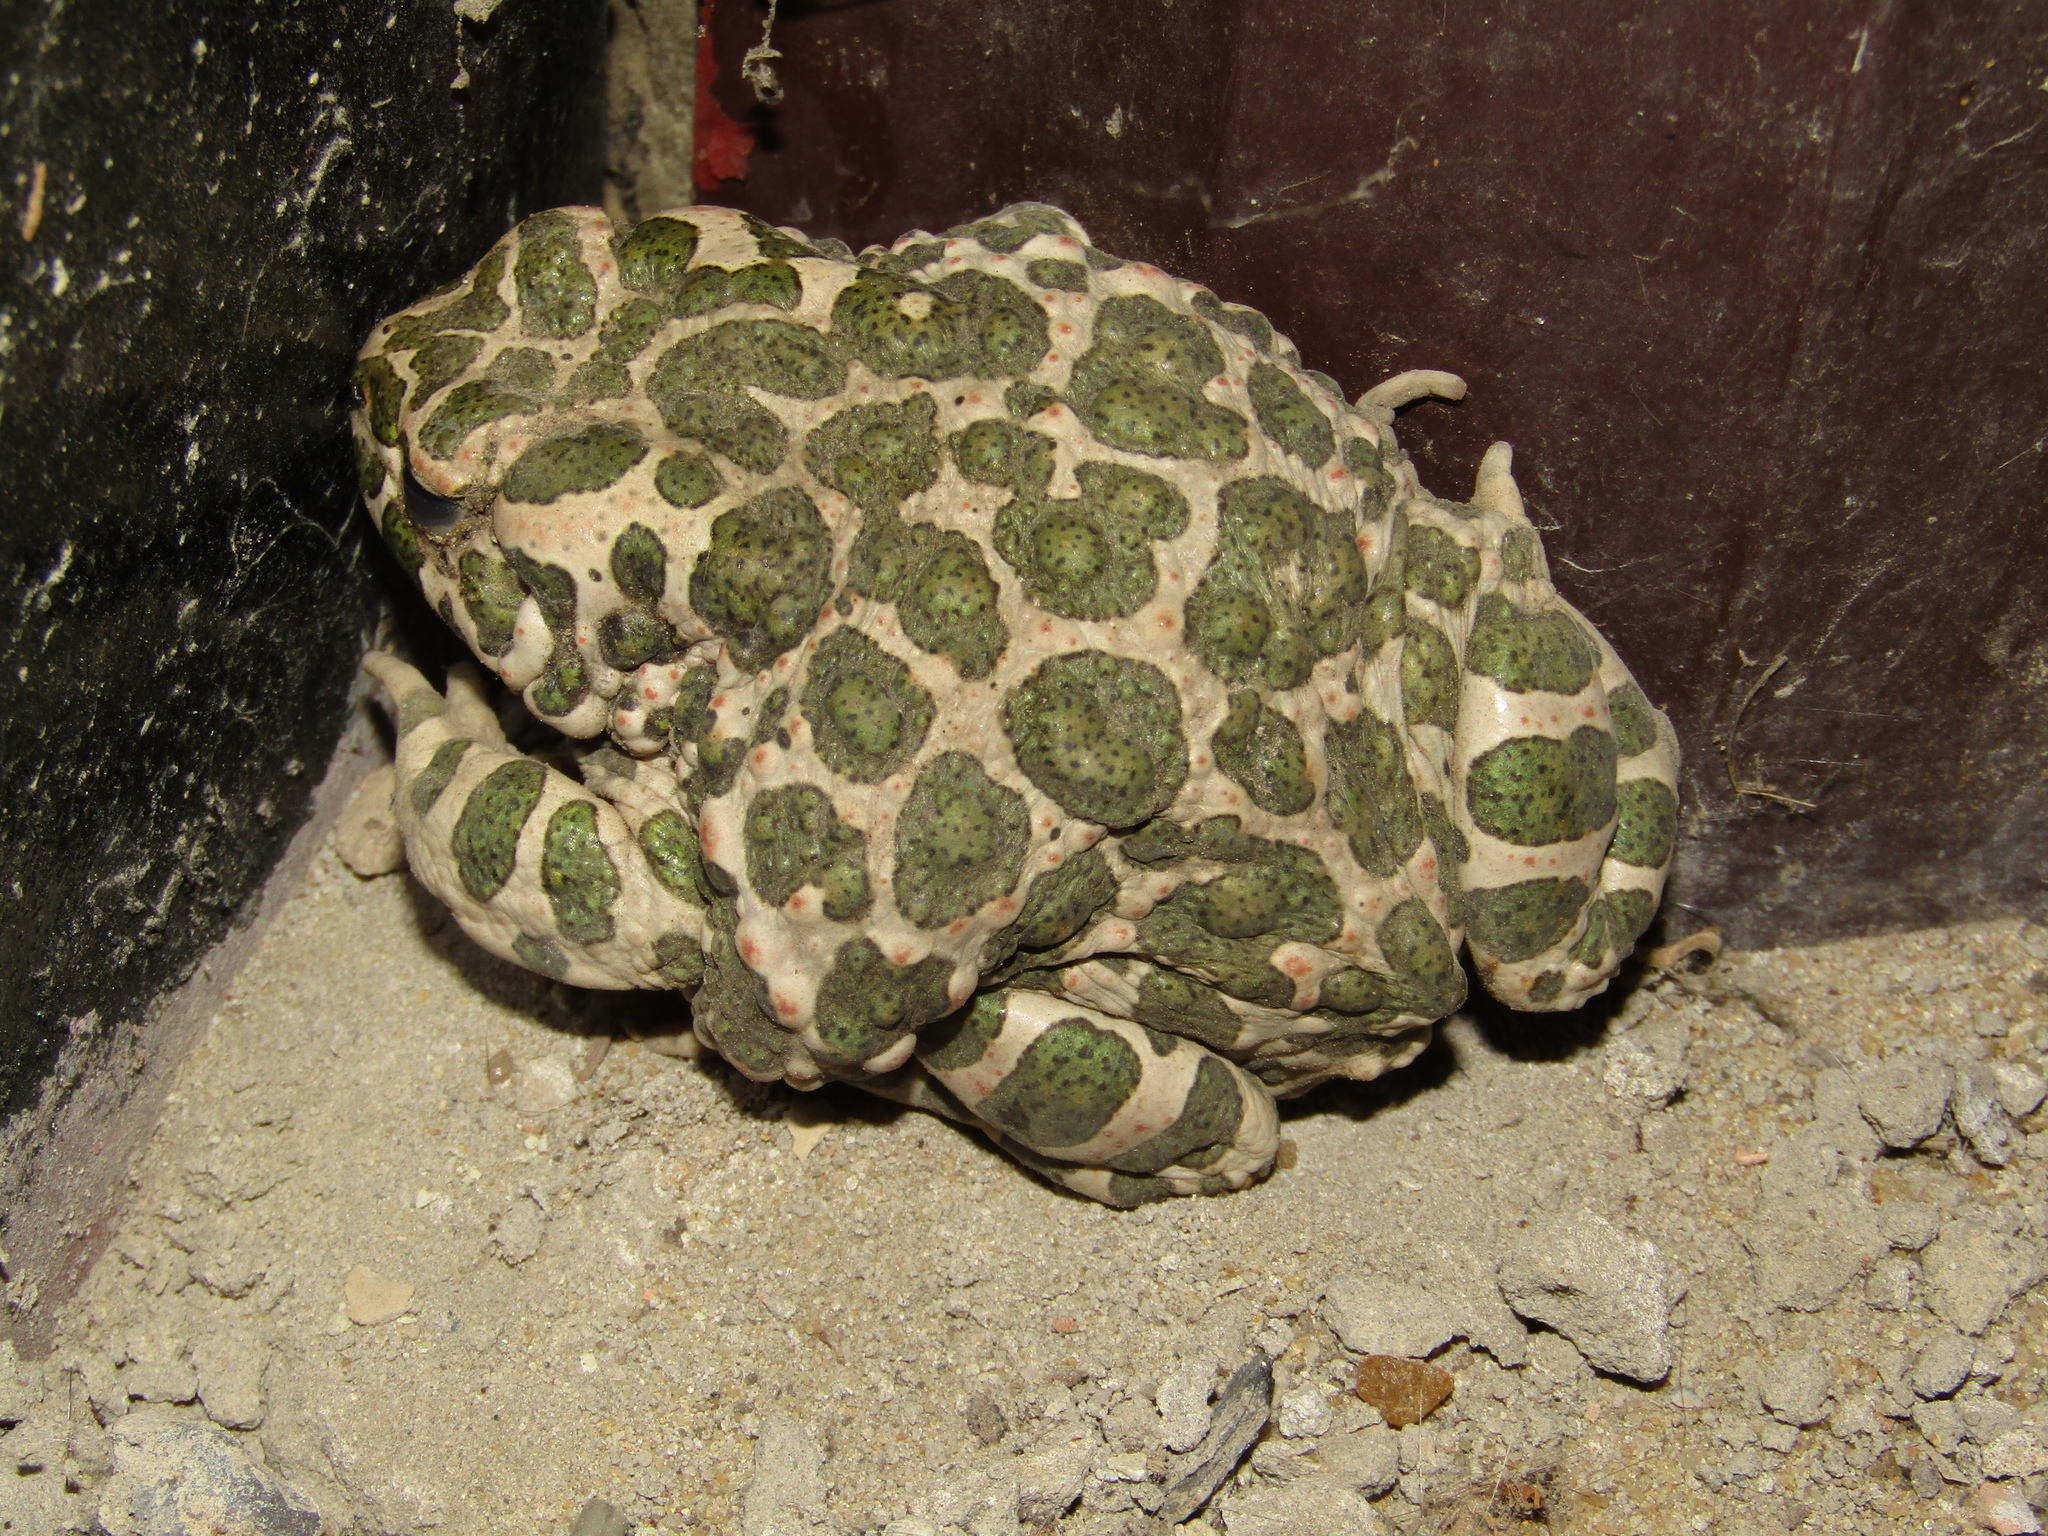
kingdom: Animalia
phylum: Chordata
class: Amphibia
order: Anura
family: Bufonidae
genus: Bufotes
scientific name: Bufotes viridis
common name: European green toad
